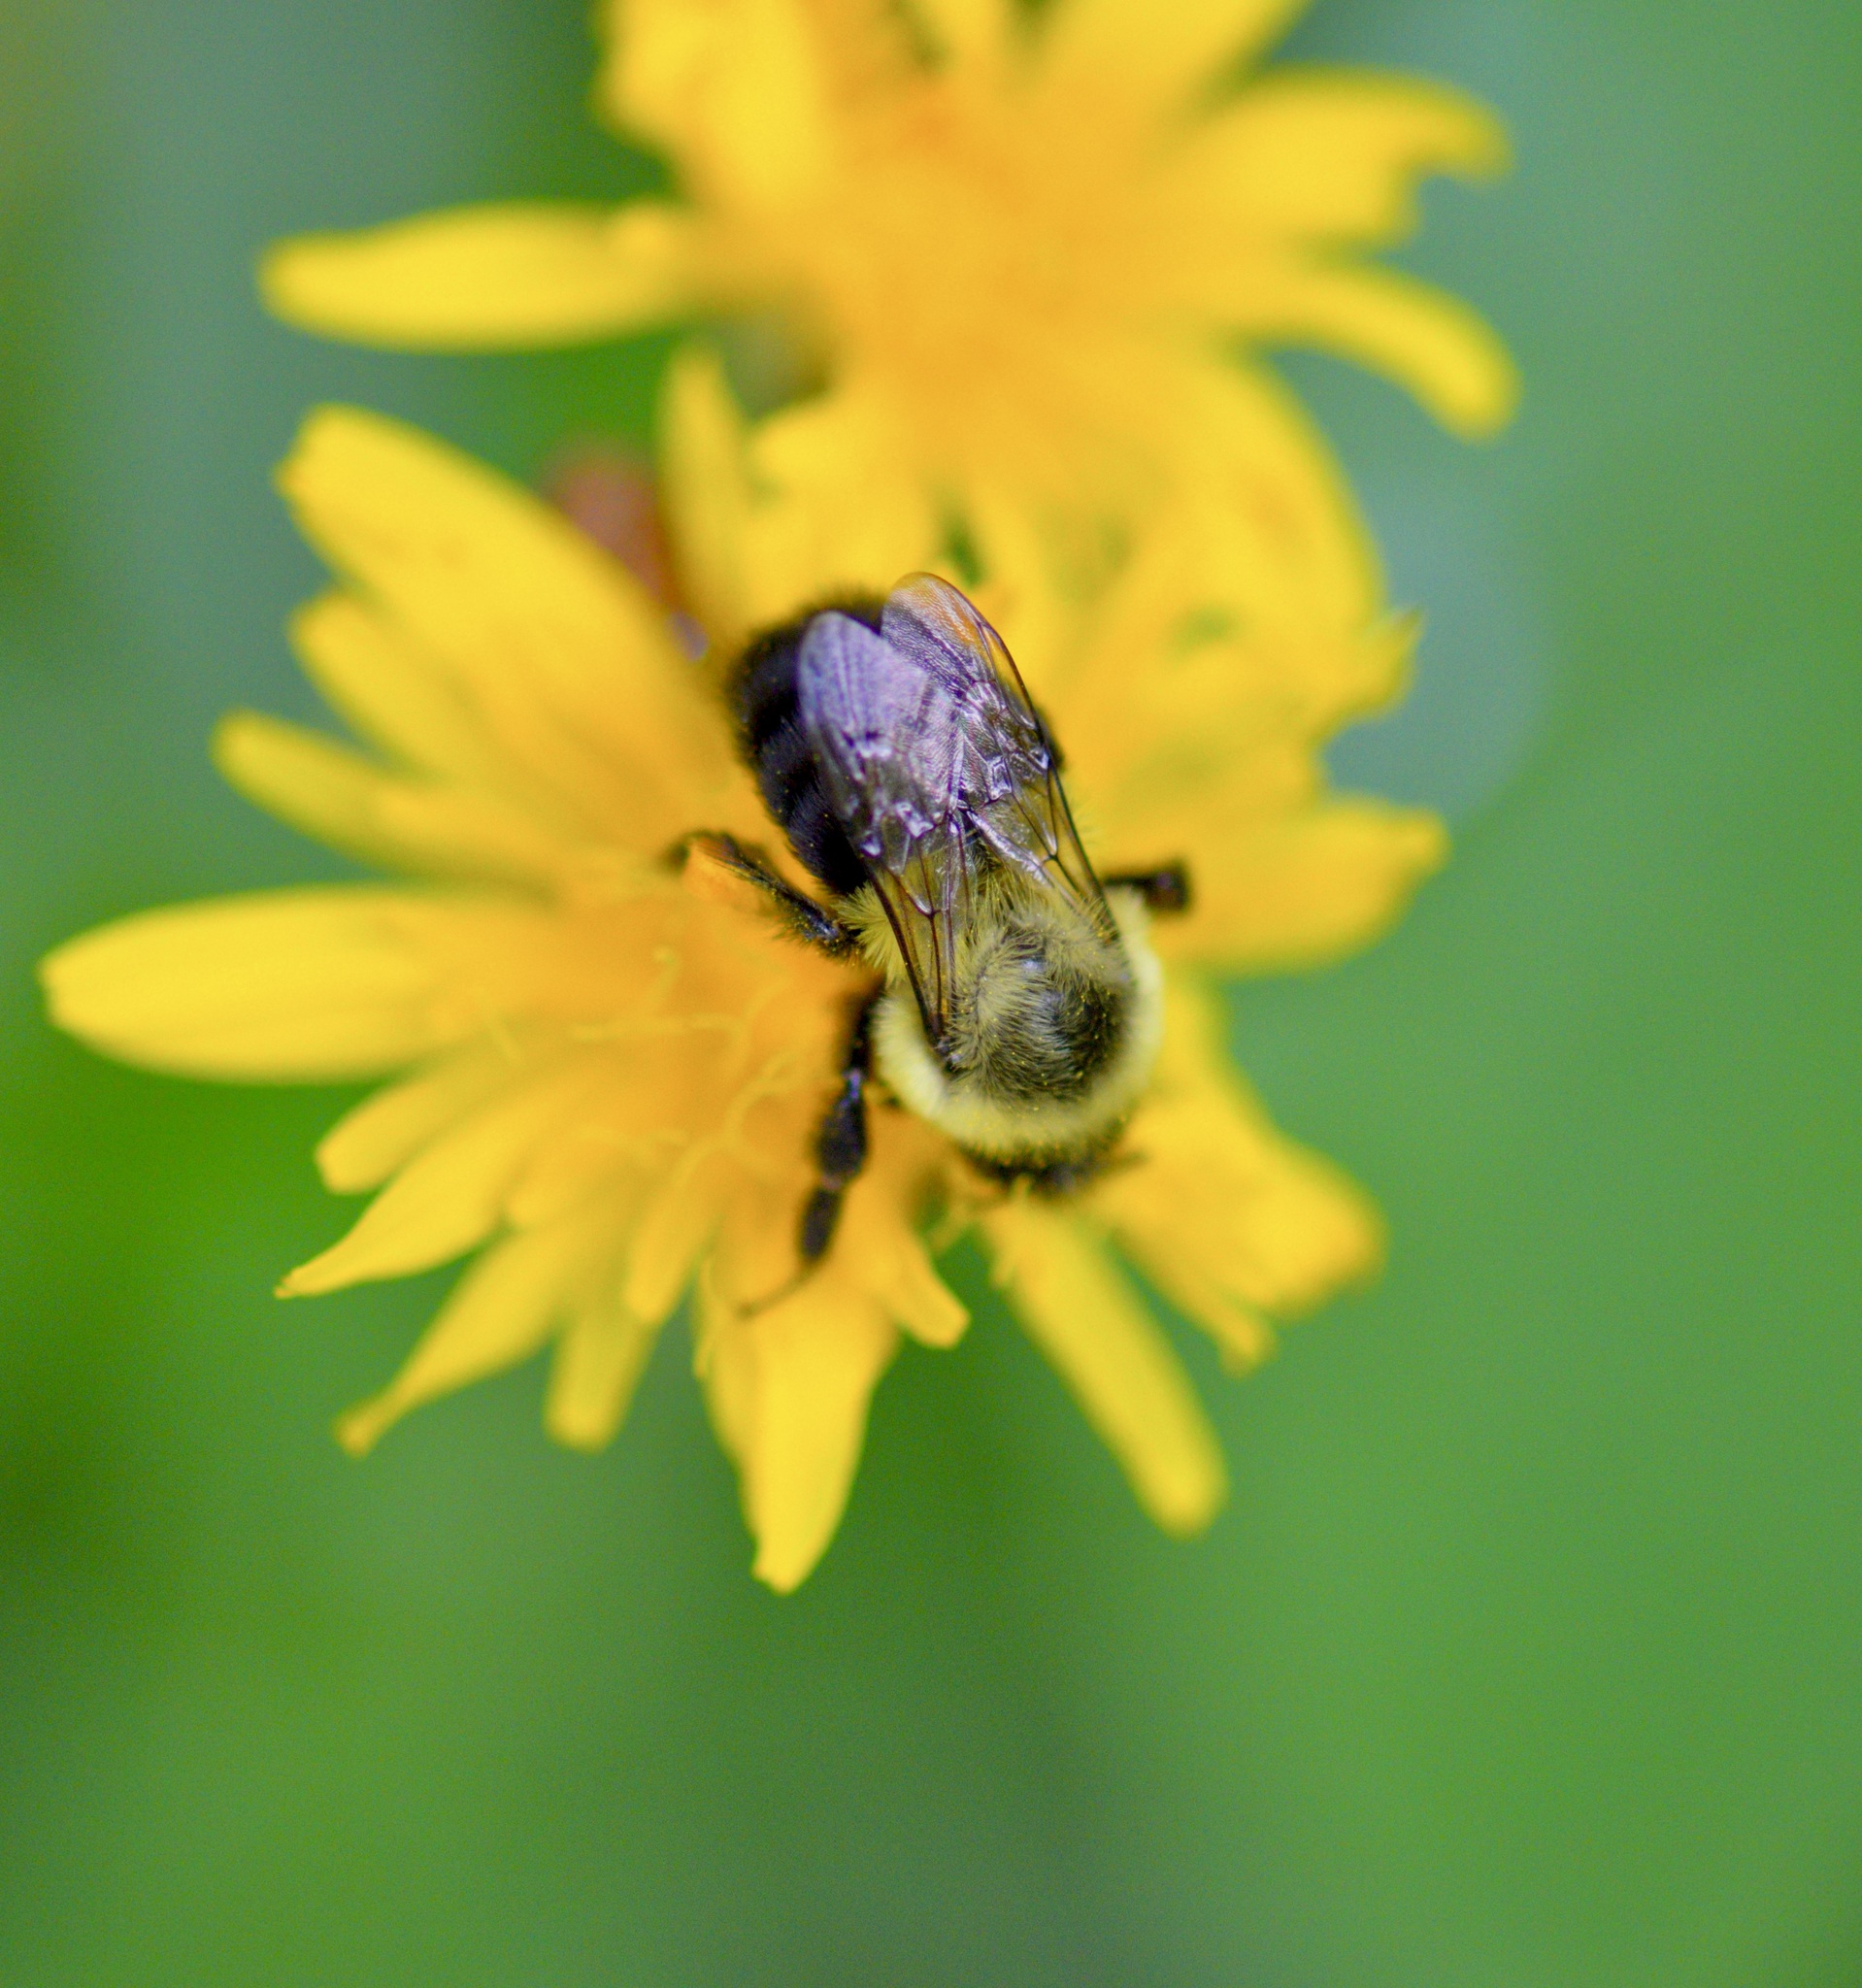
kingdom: Animalia
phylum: Arthropoda
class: Insecta
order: Hymenoptera
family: Apidae
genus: Bombus
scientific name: Bombus impatiens
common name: Common eastern bumble bee
